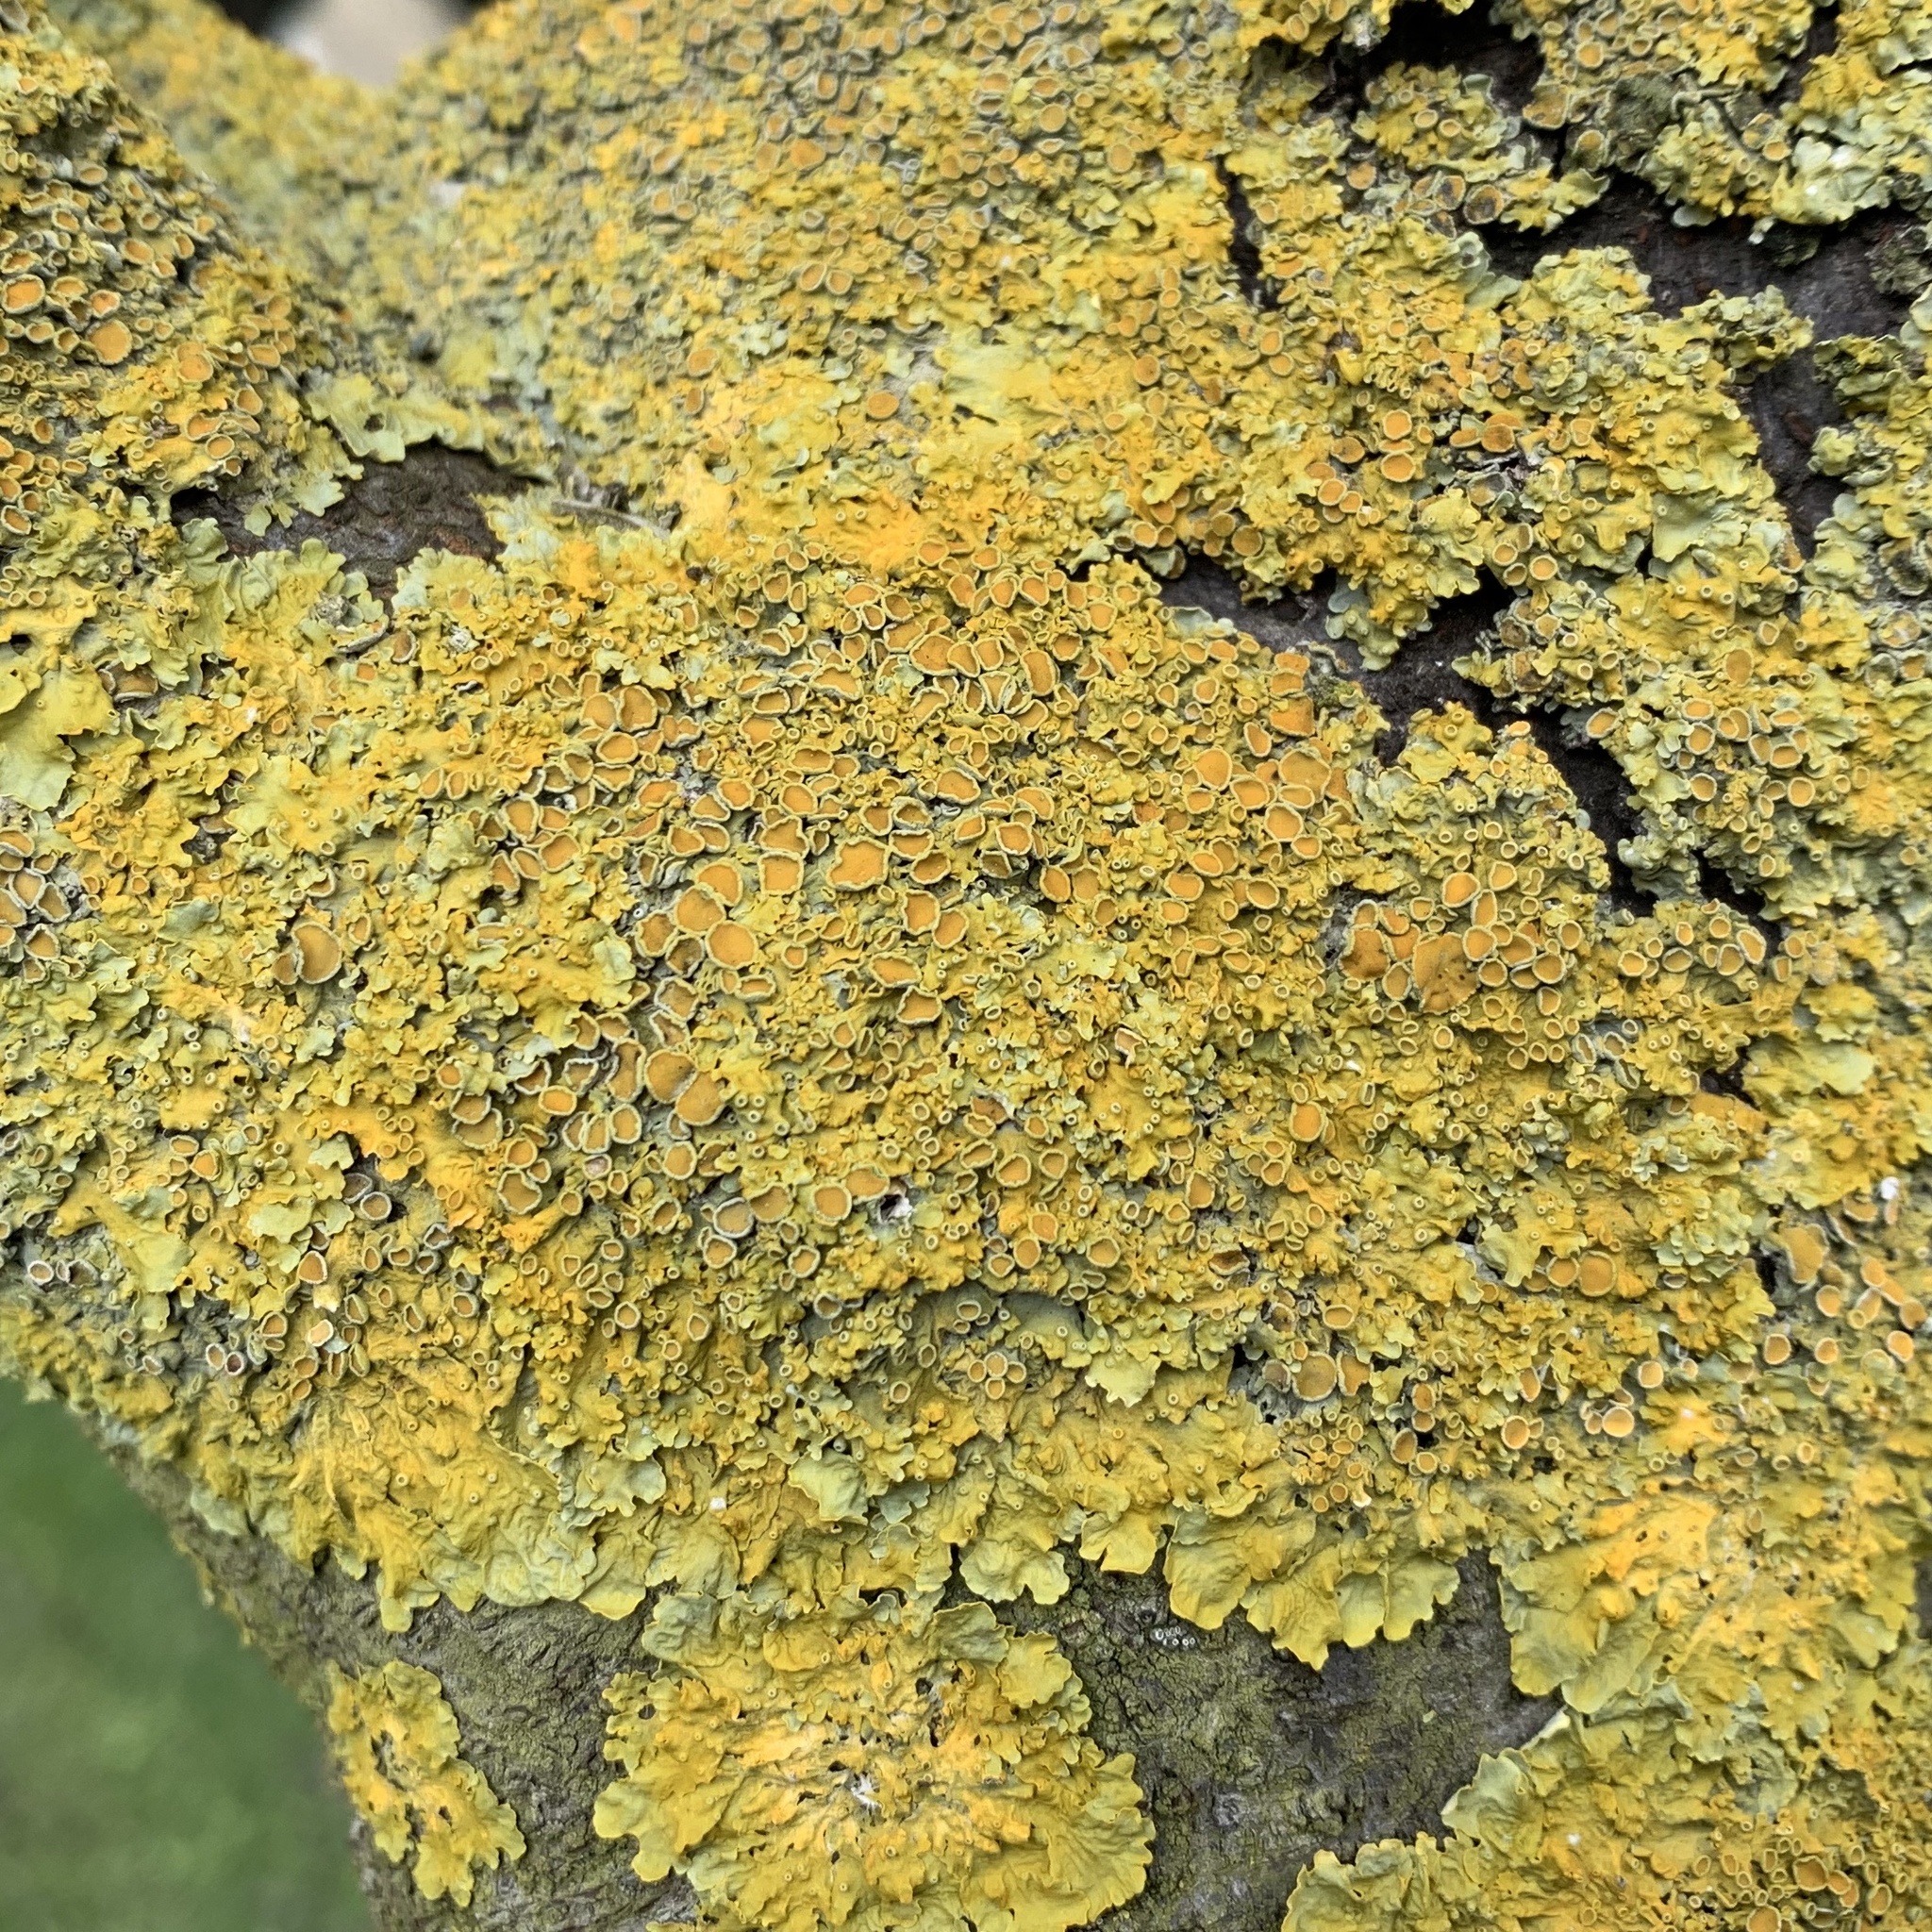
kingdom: Fungi
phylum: Ascomycota
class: Lecanoromycetes
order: Teloschistales
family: Teloschistaceae
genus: Xanthoria
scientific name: Xanthoria parietina
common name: Common orange lichen
